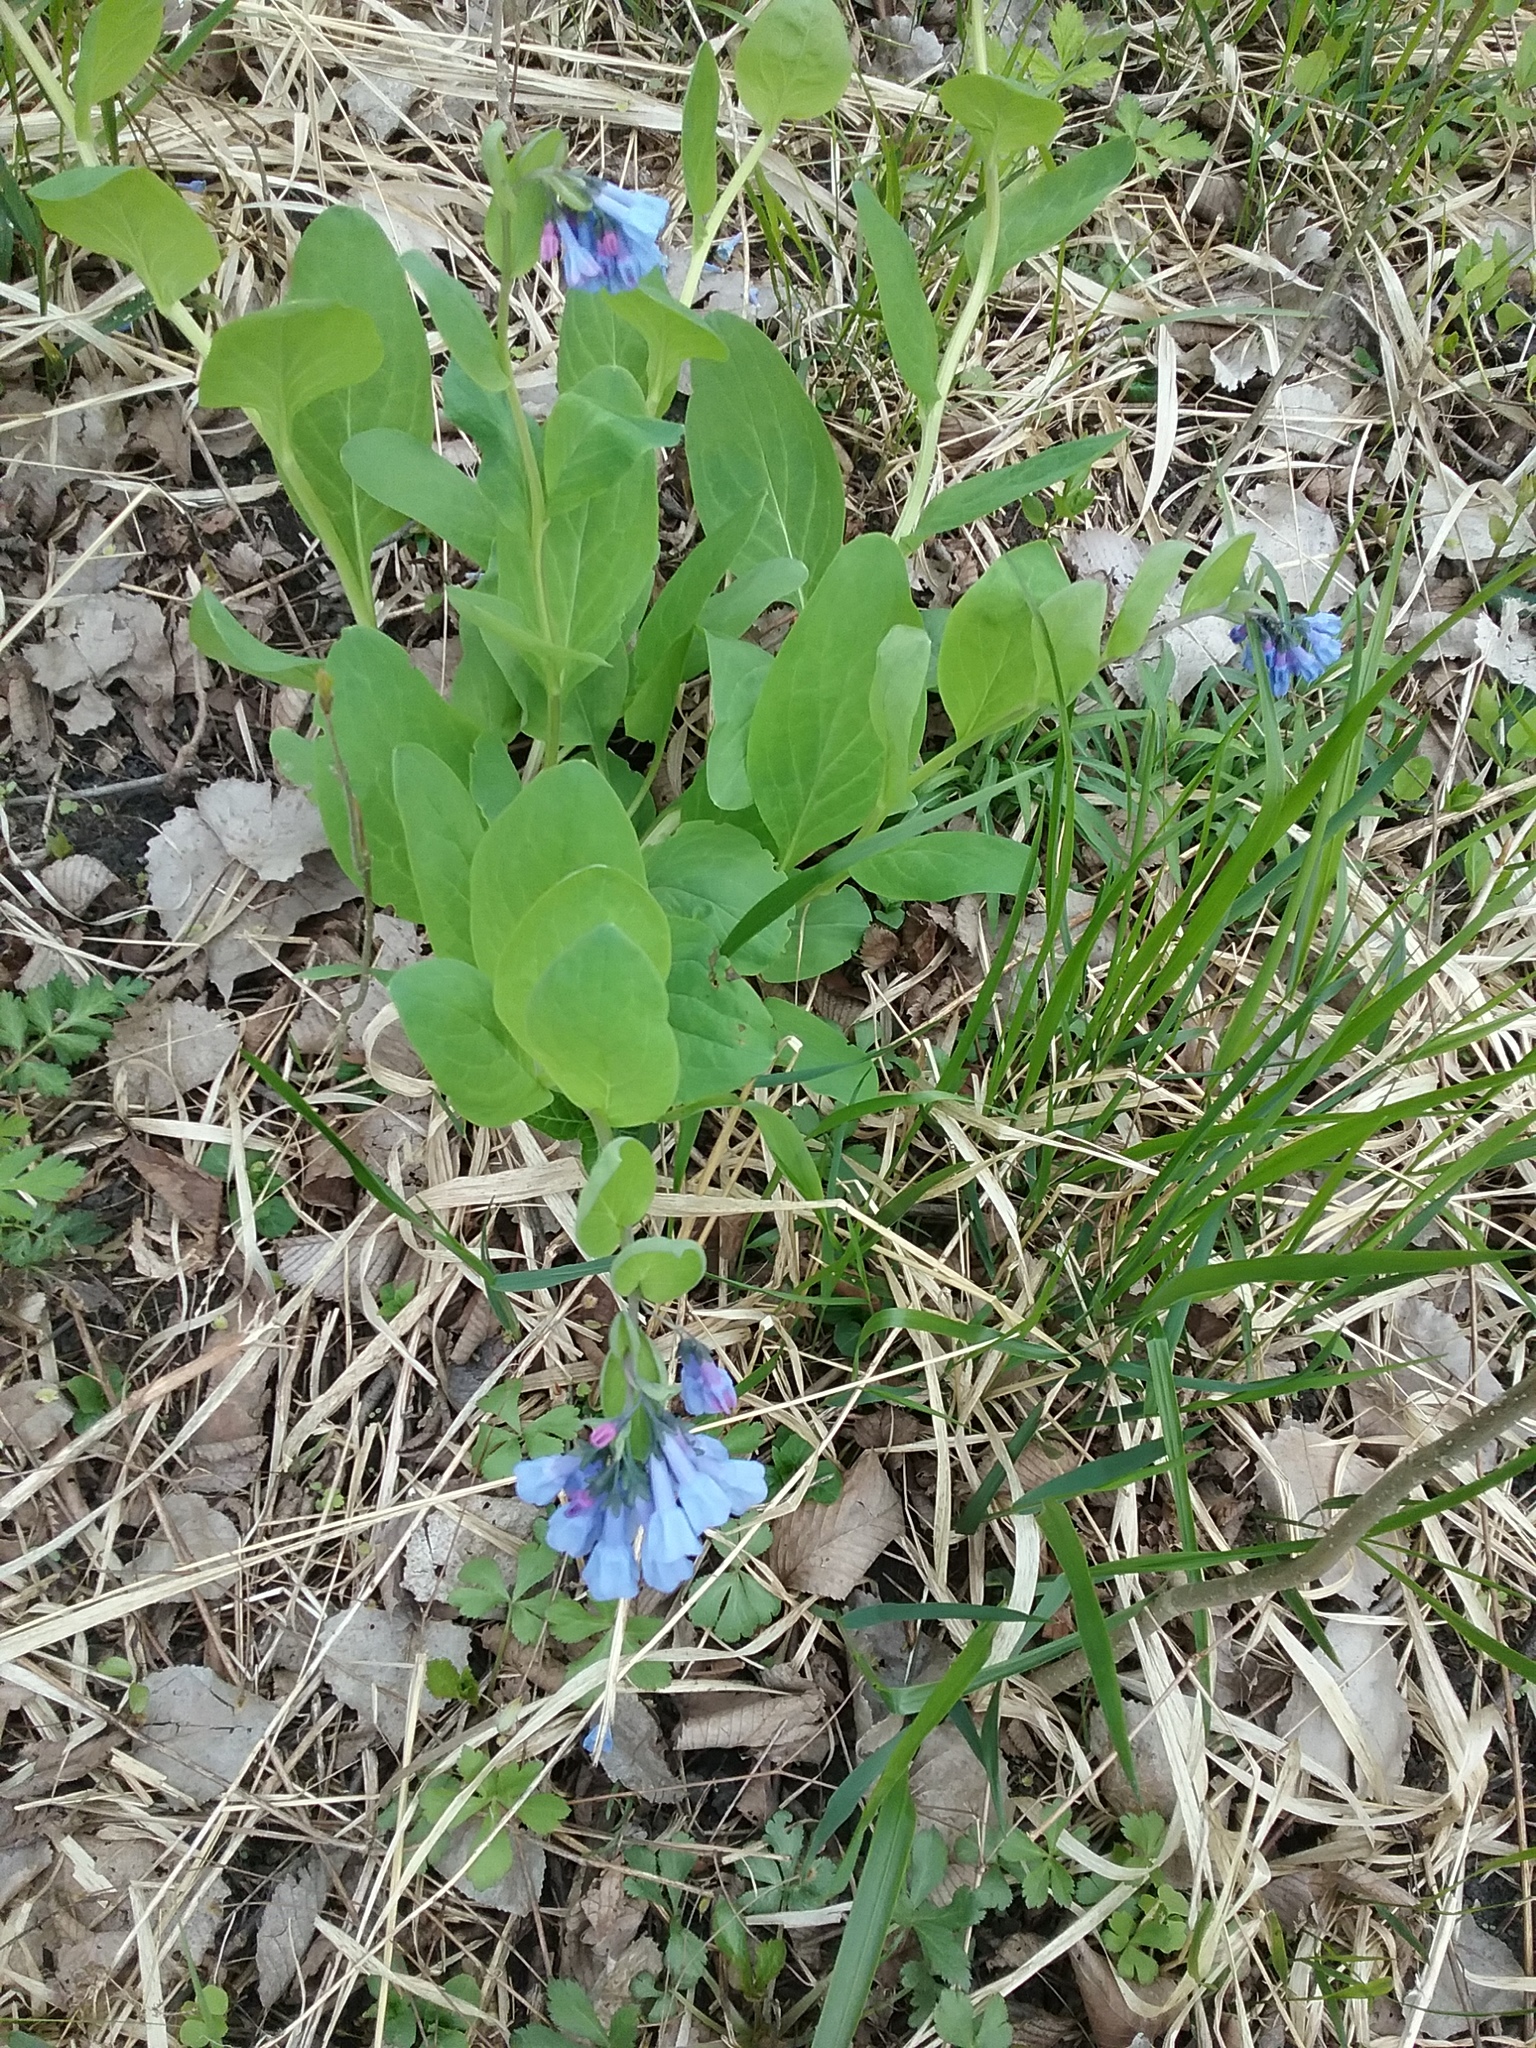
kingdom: Plantae
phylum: Tracheophyta
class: Magnoliopsida
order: Boraginales
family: Boraginaceae
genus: Mertensia
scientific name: Mertensia virginica
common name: Virginia bluebells
